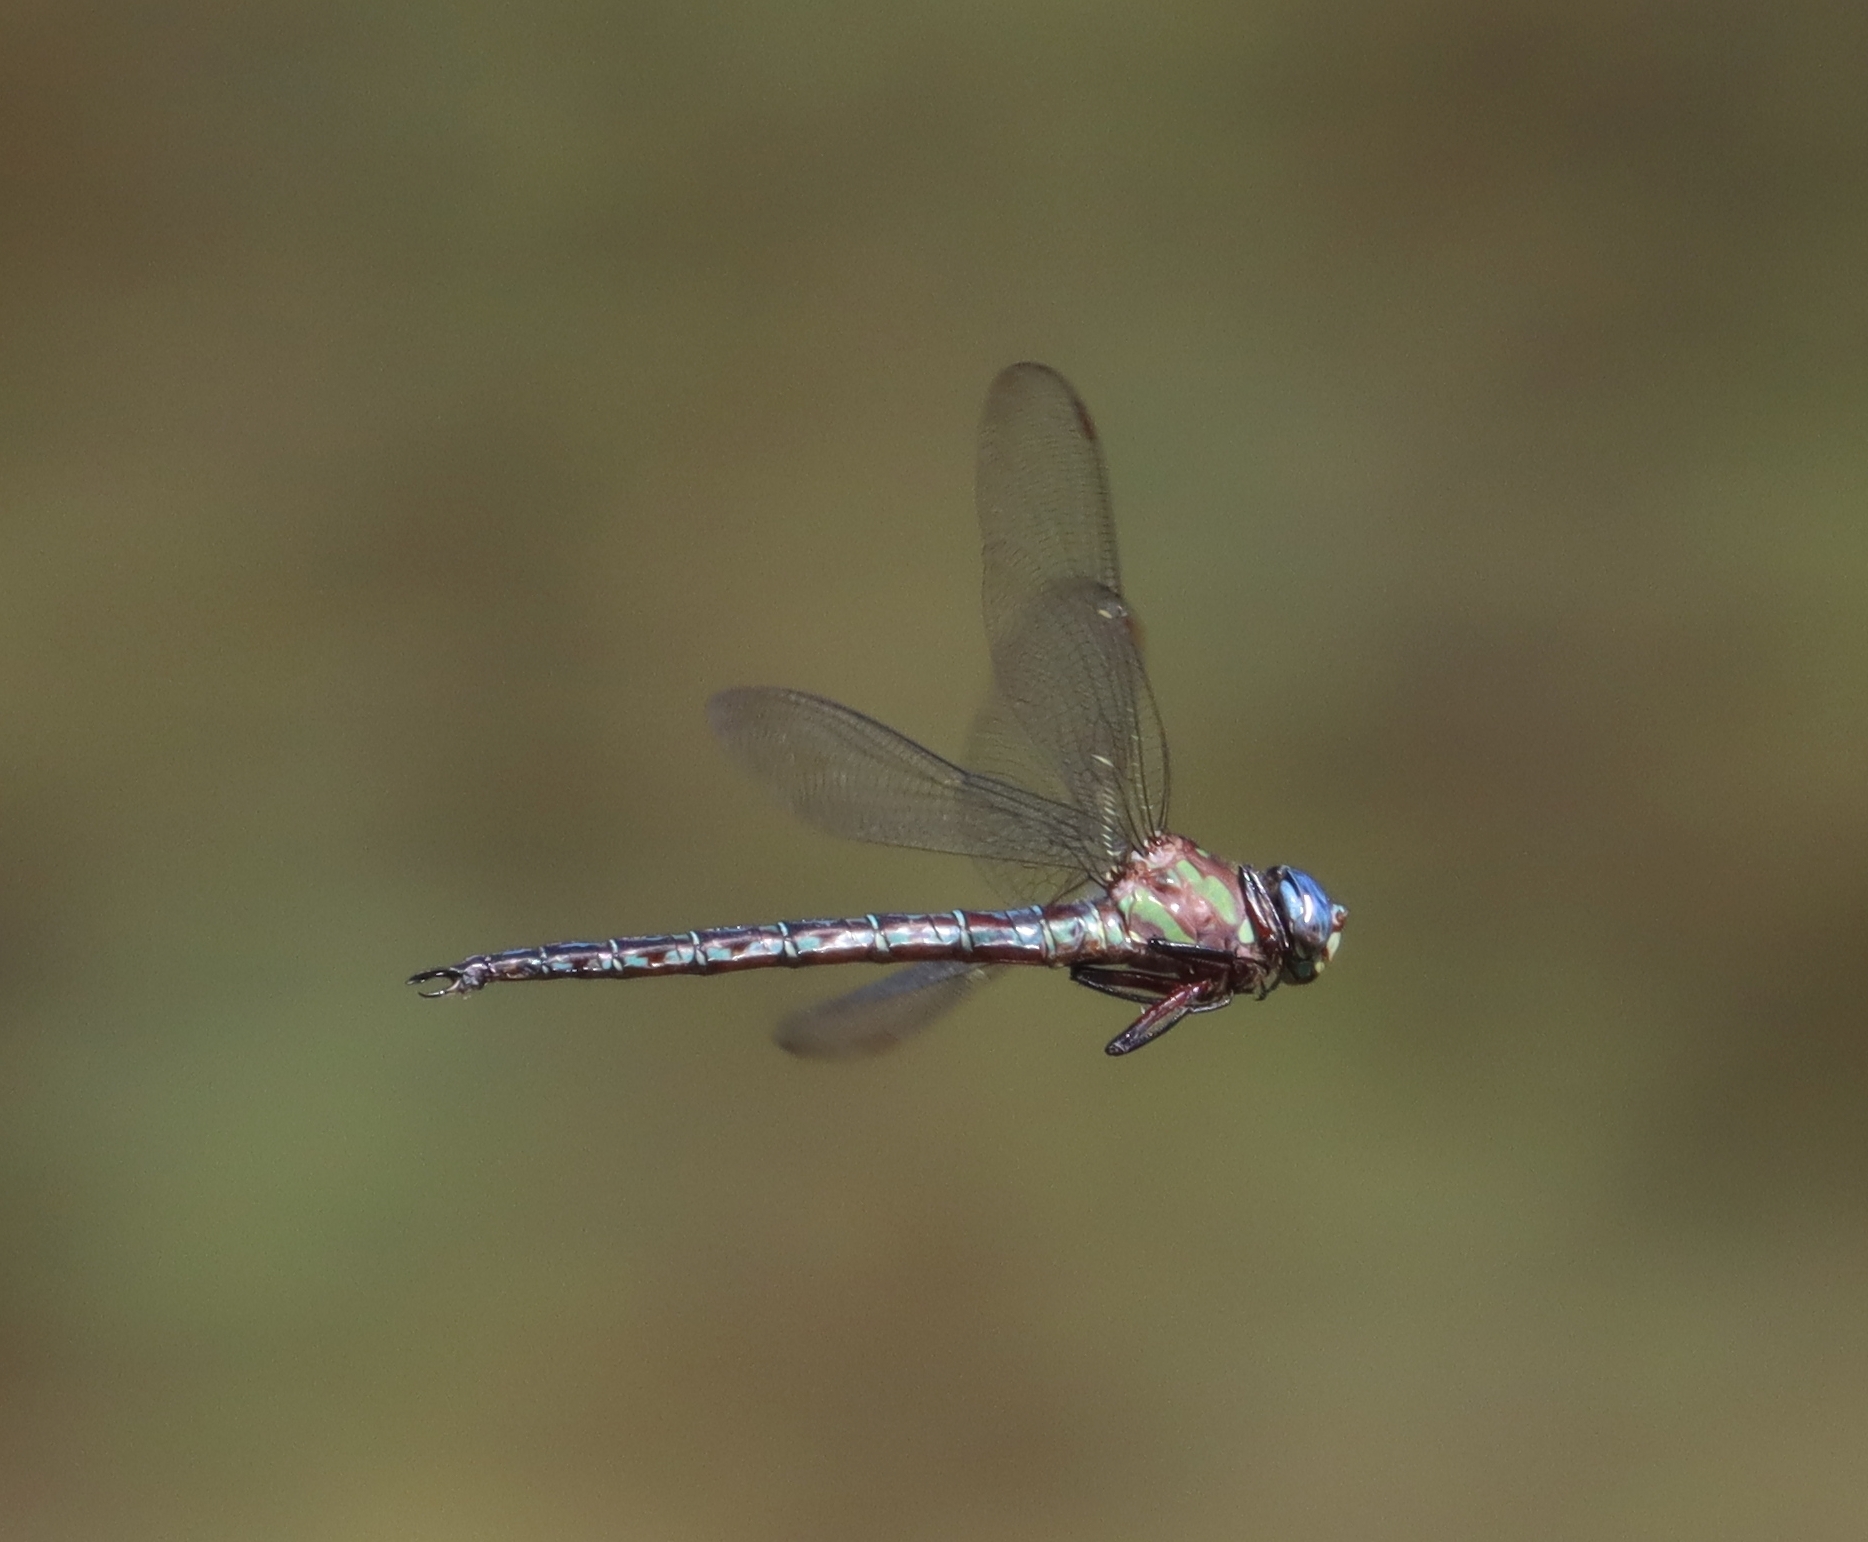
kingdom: Animalia
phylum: Arthropoda
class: Insecta
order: Odonata
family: Aeshnidae
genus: Nasiaeschna
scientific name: Nasiaeschna pentacantha
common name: Cyrano darner
